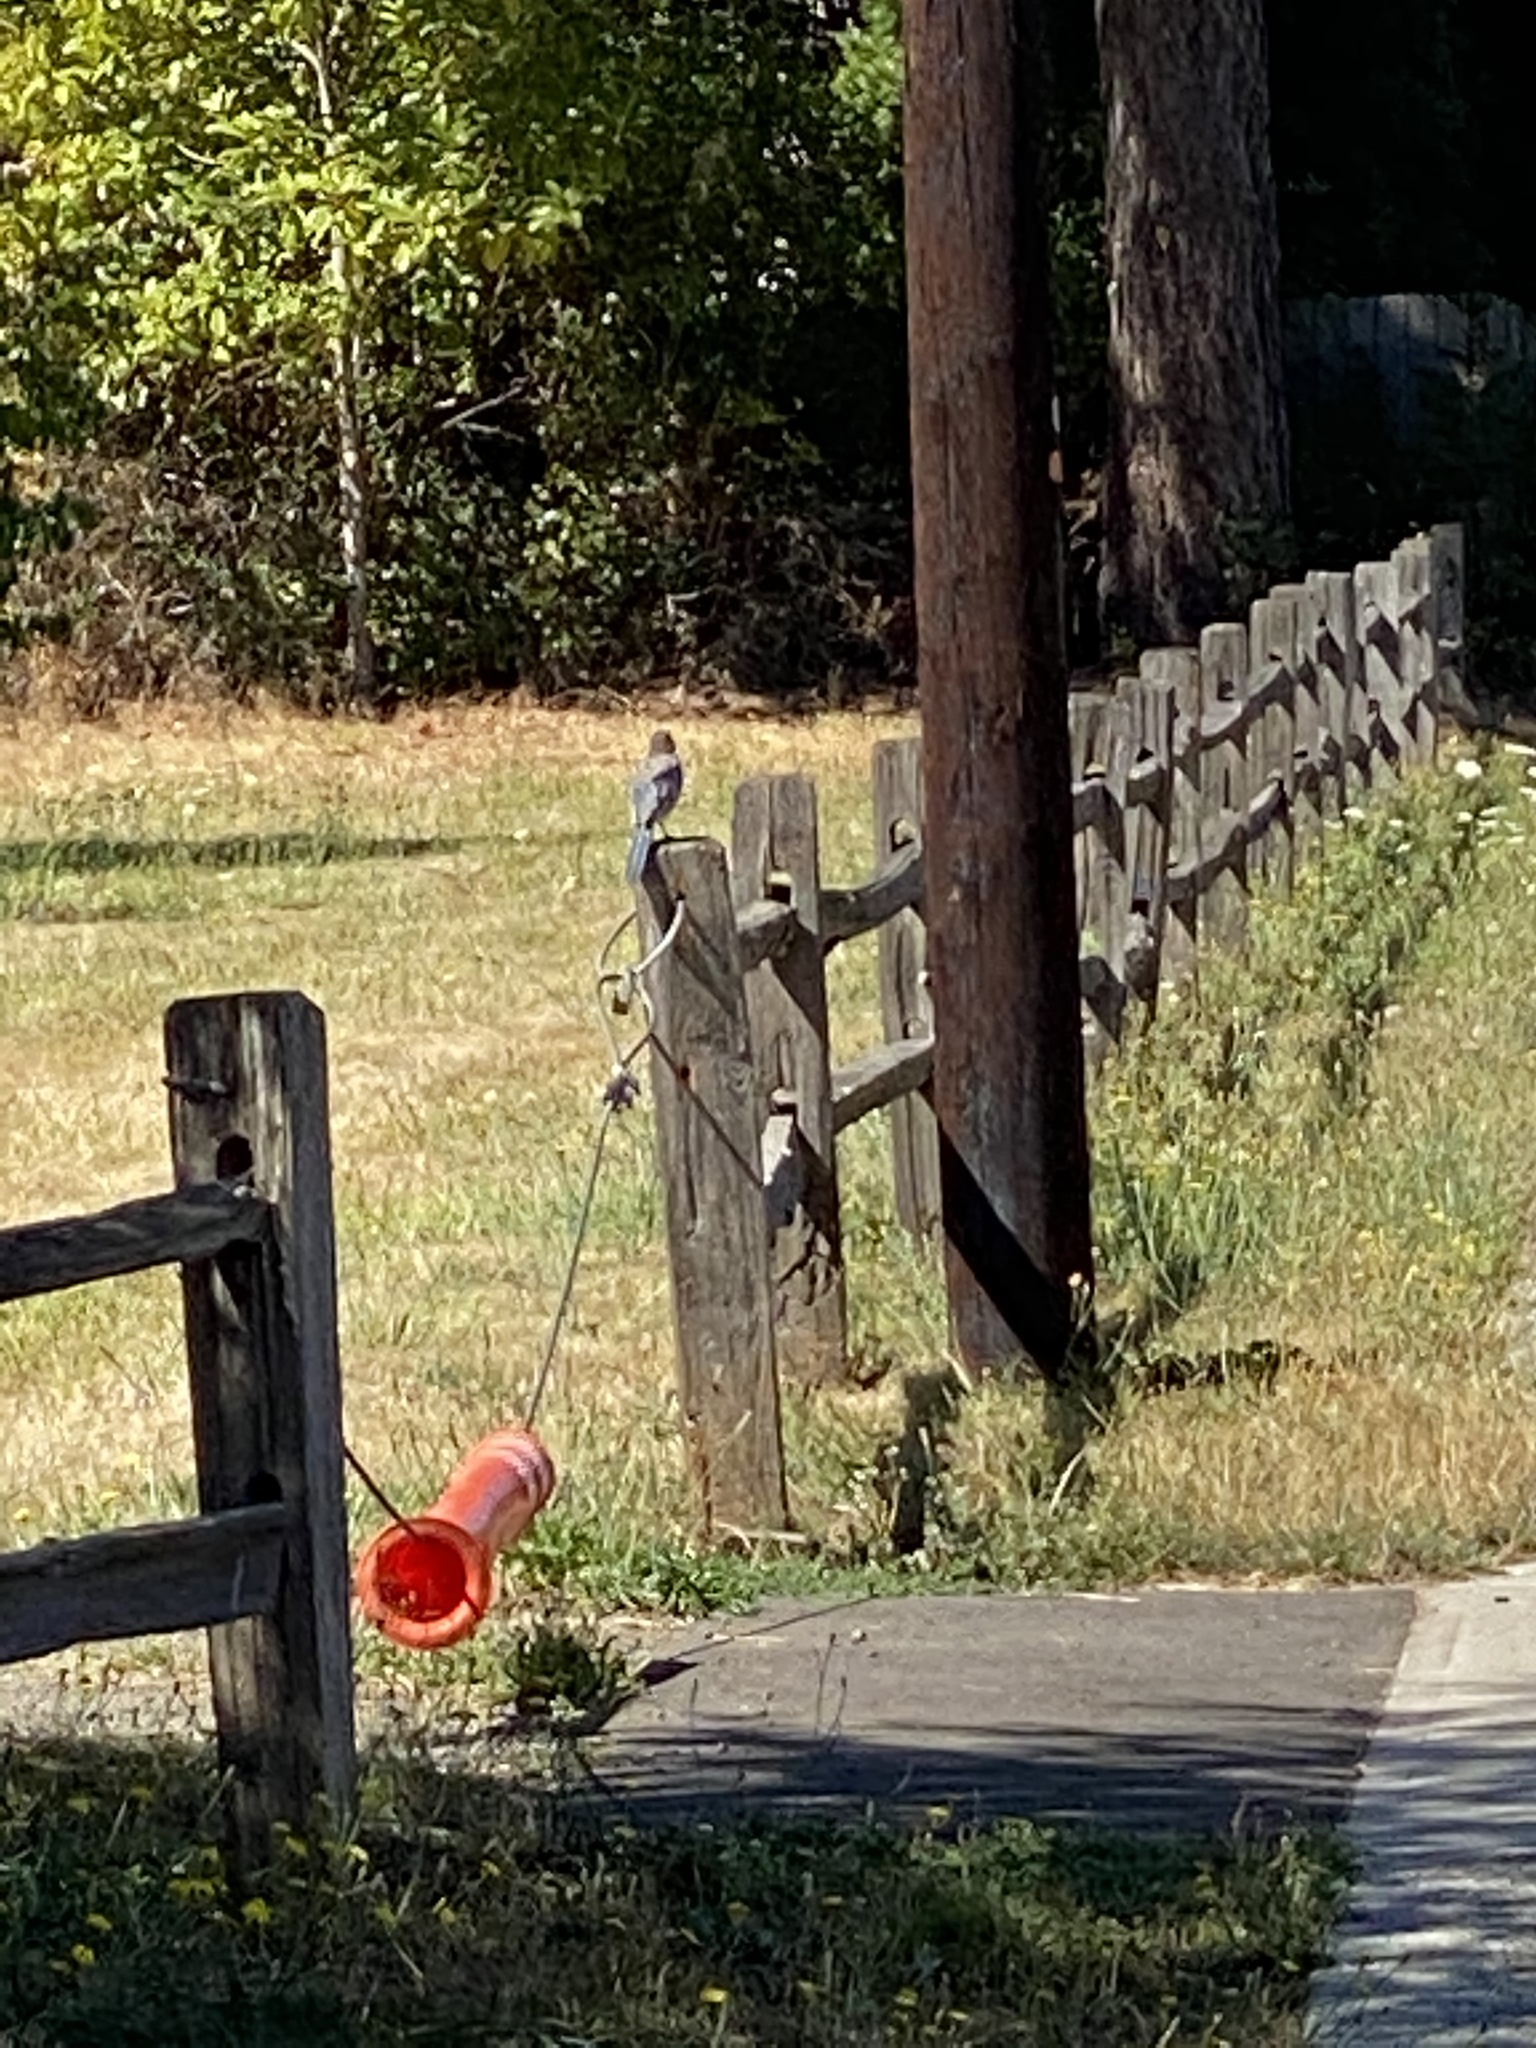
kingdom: Animalia
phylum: Chordata
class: Aves
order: Passeriformes
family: Corvidae
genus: Aphelocoma
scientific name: Aphelocoma californica
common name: California scrub-jay
